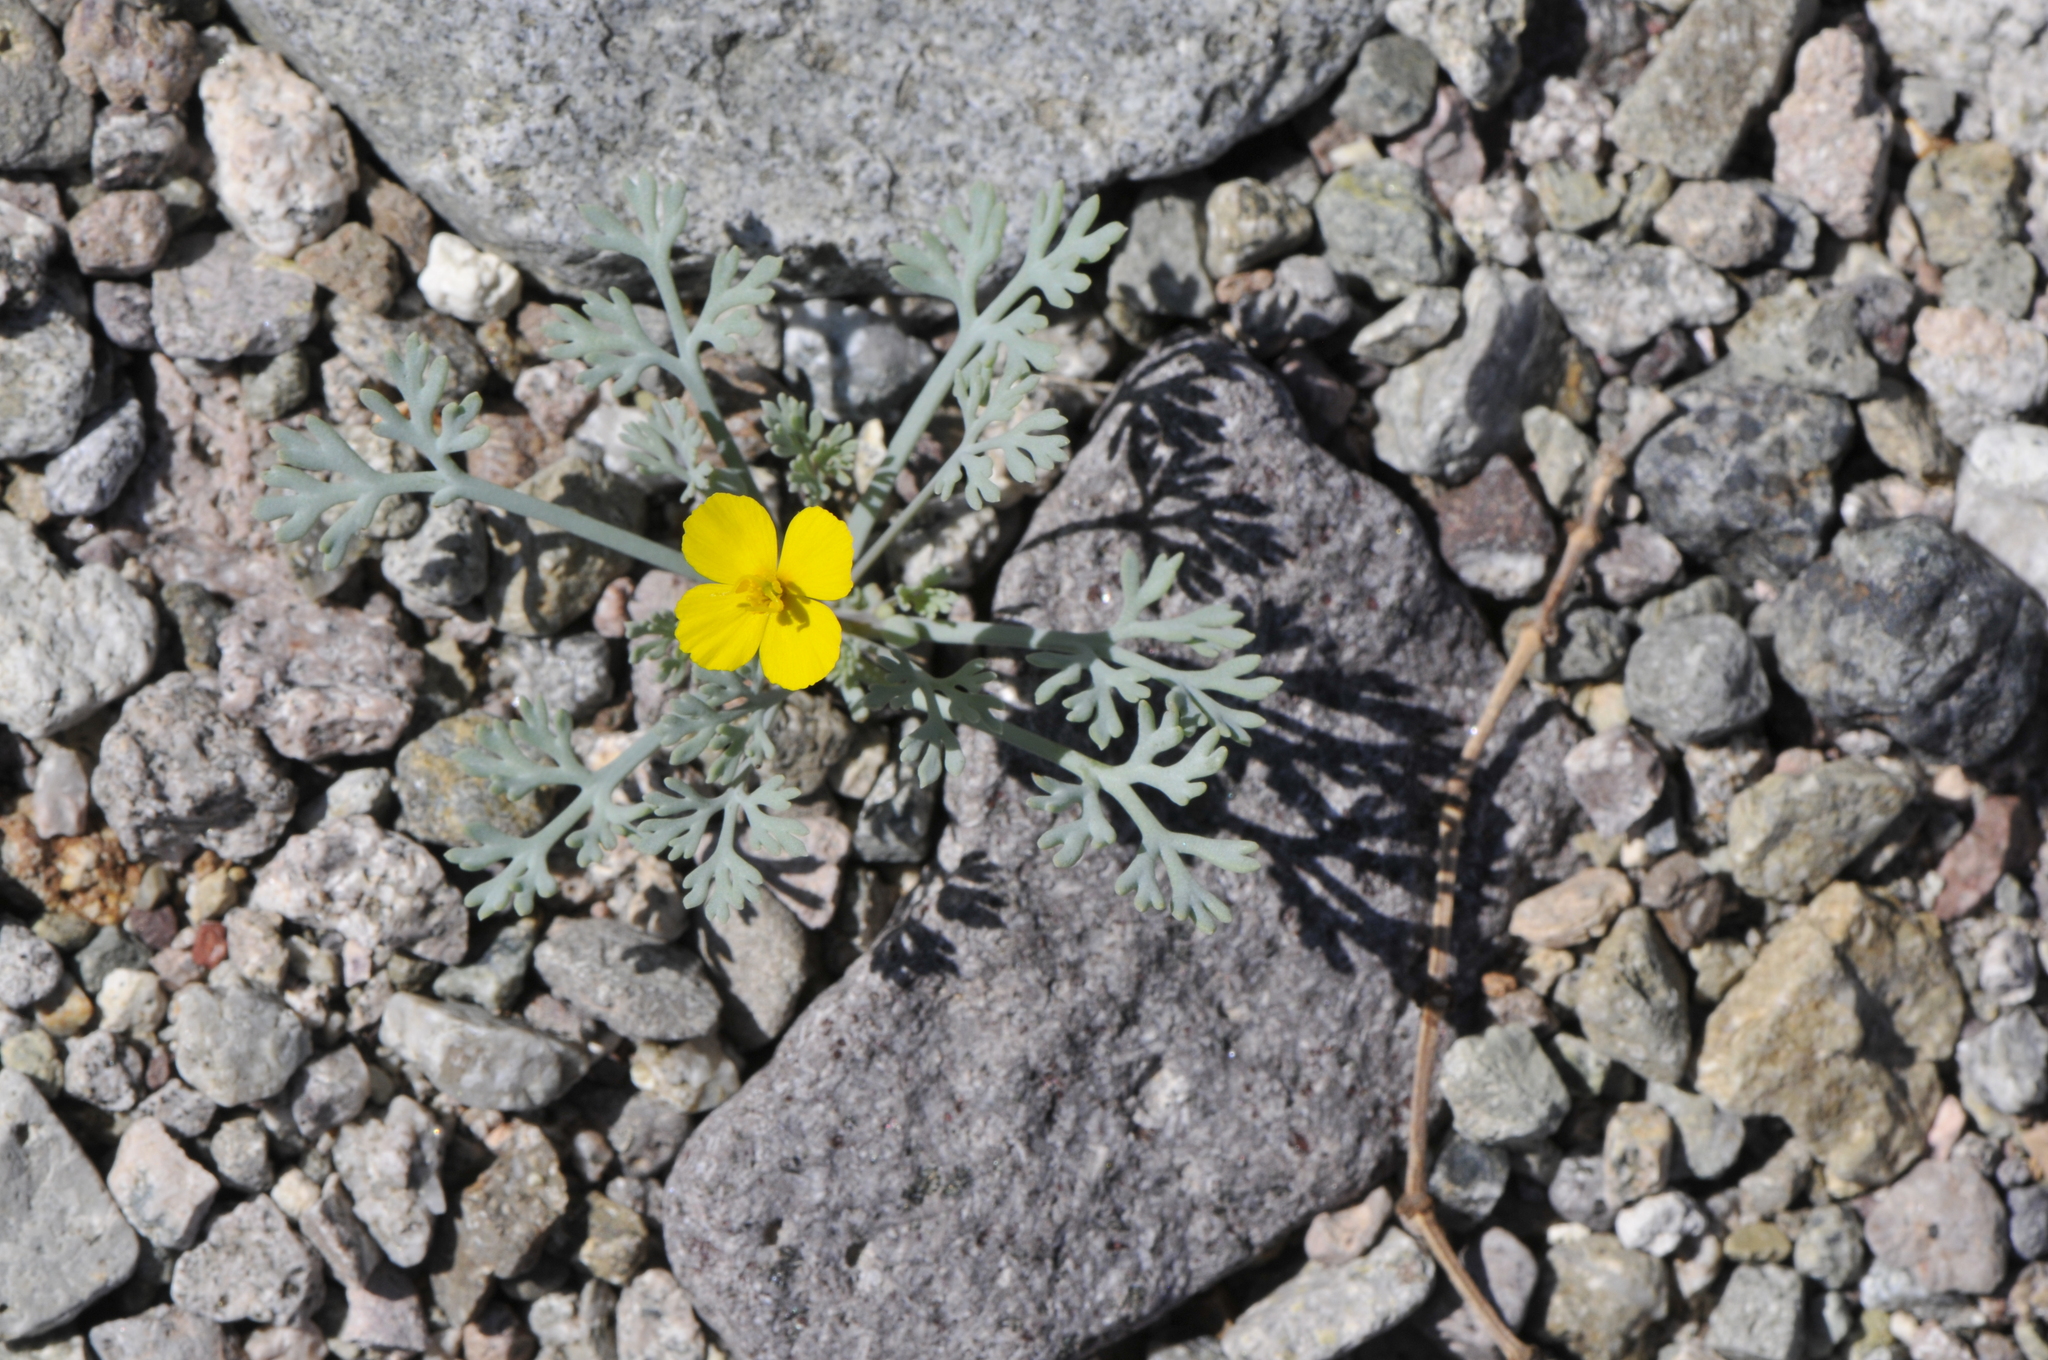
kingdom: Plantae
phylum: Tracheophyta
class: Magnoliopsida
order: Ranunculales
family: Papaveraceae
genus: Eschscholzia
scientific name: Eschscholzia minutiflora
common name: Small-flower california-poppy
